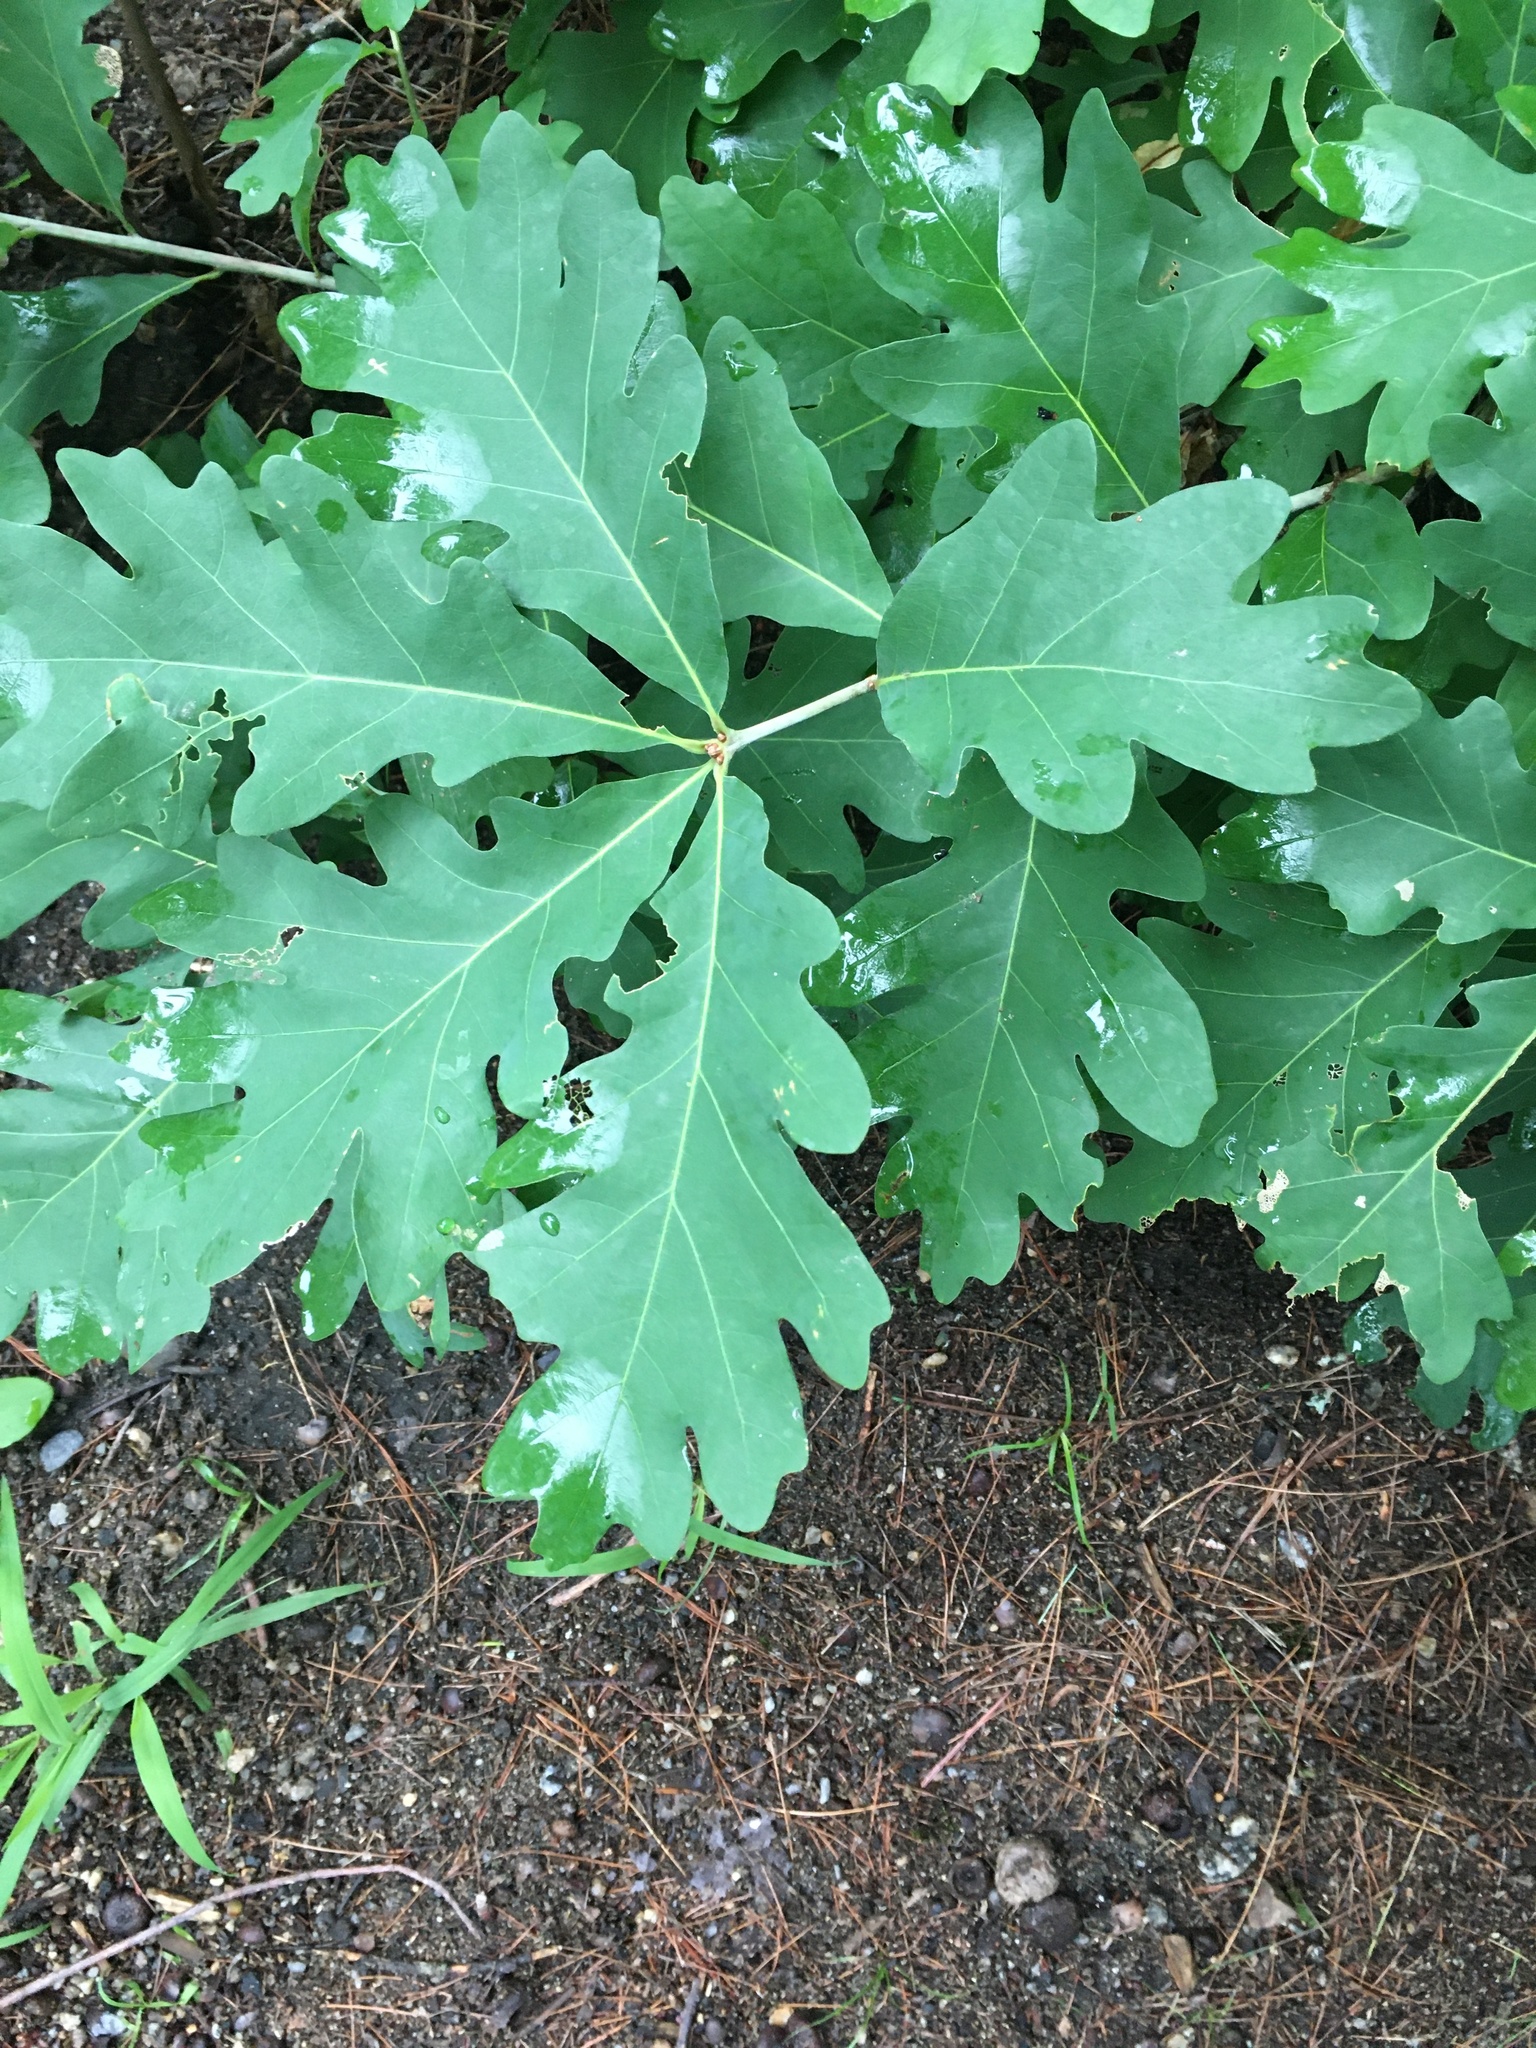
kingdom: Plantae
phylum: Tracheophyta
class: Magnoliopsida
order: Fagales
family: Fagaceae
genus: Quercus
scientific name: Quercus alba
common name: White oak
